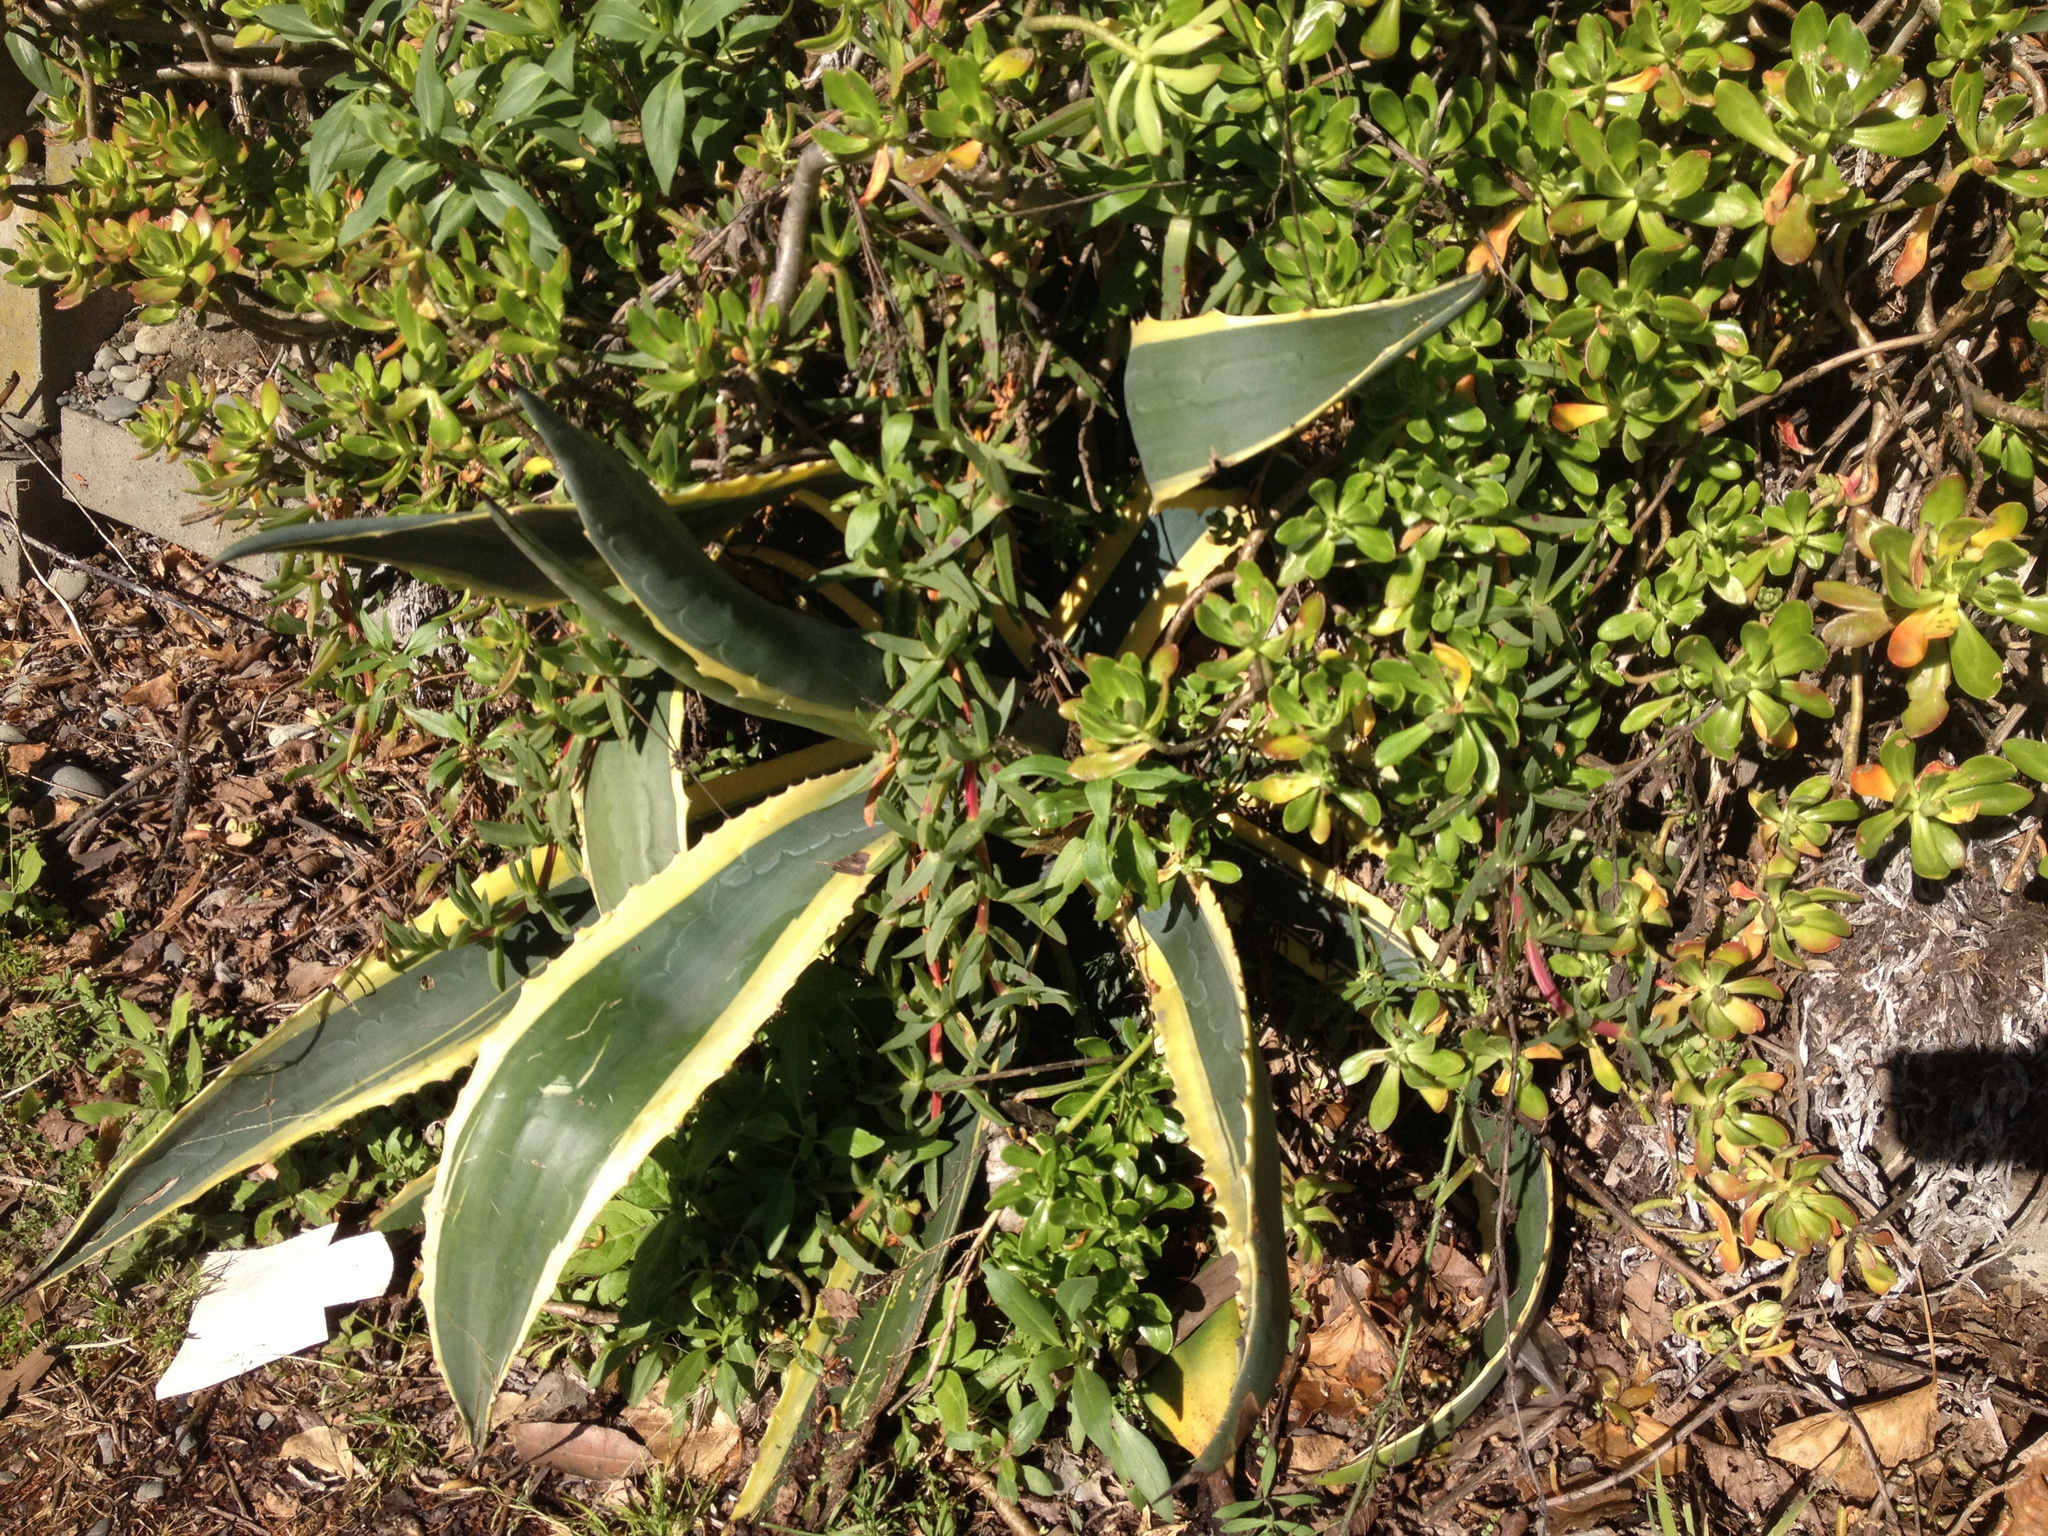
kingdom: Plantae
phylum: Tracheophyta
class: Liliopsida
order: Asparagales
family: Asparagaceae
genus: Agave
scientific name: Agave americana
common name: Centuryplant
